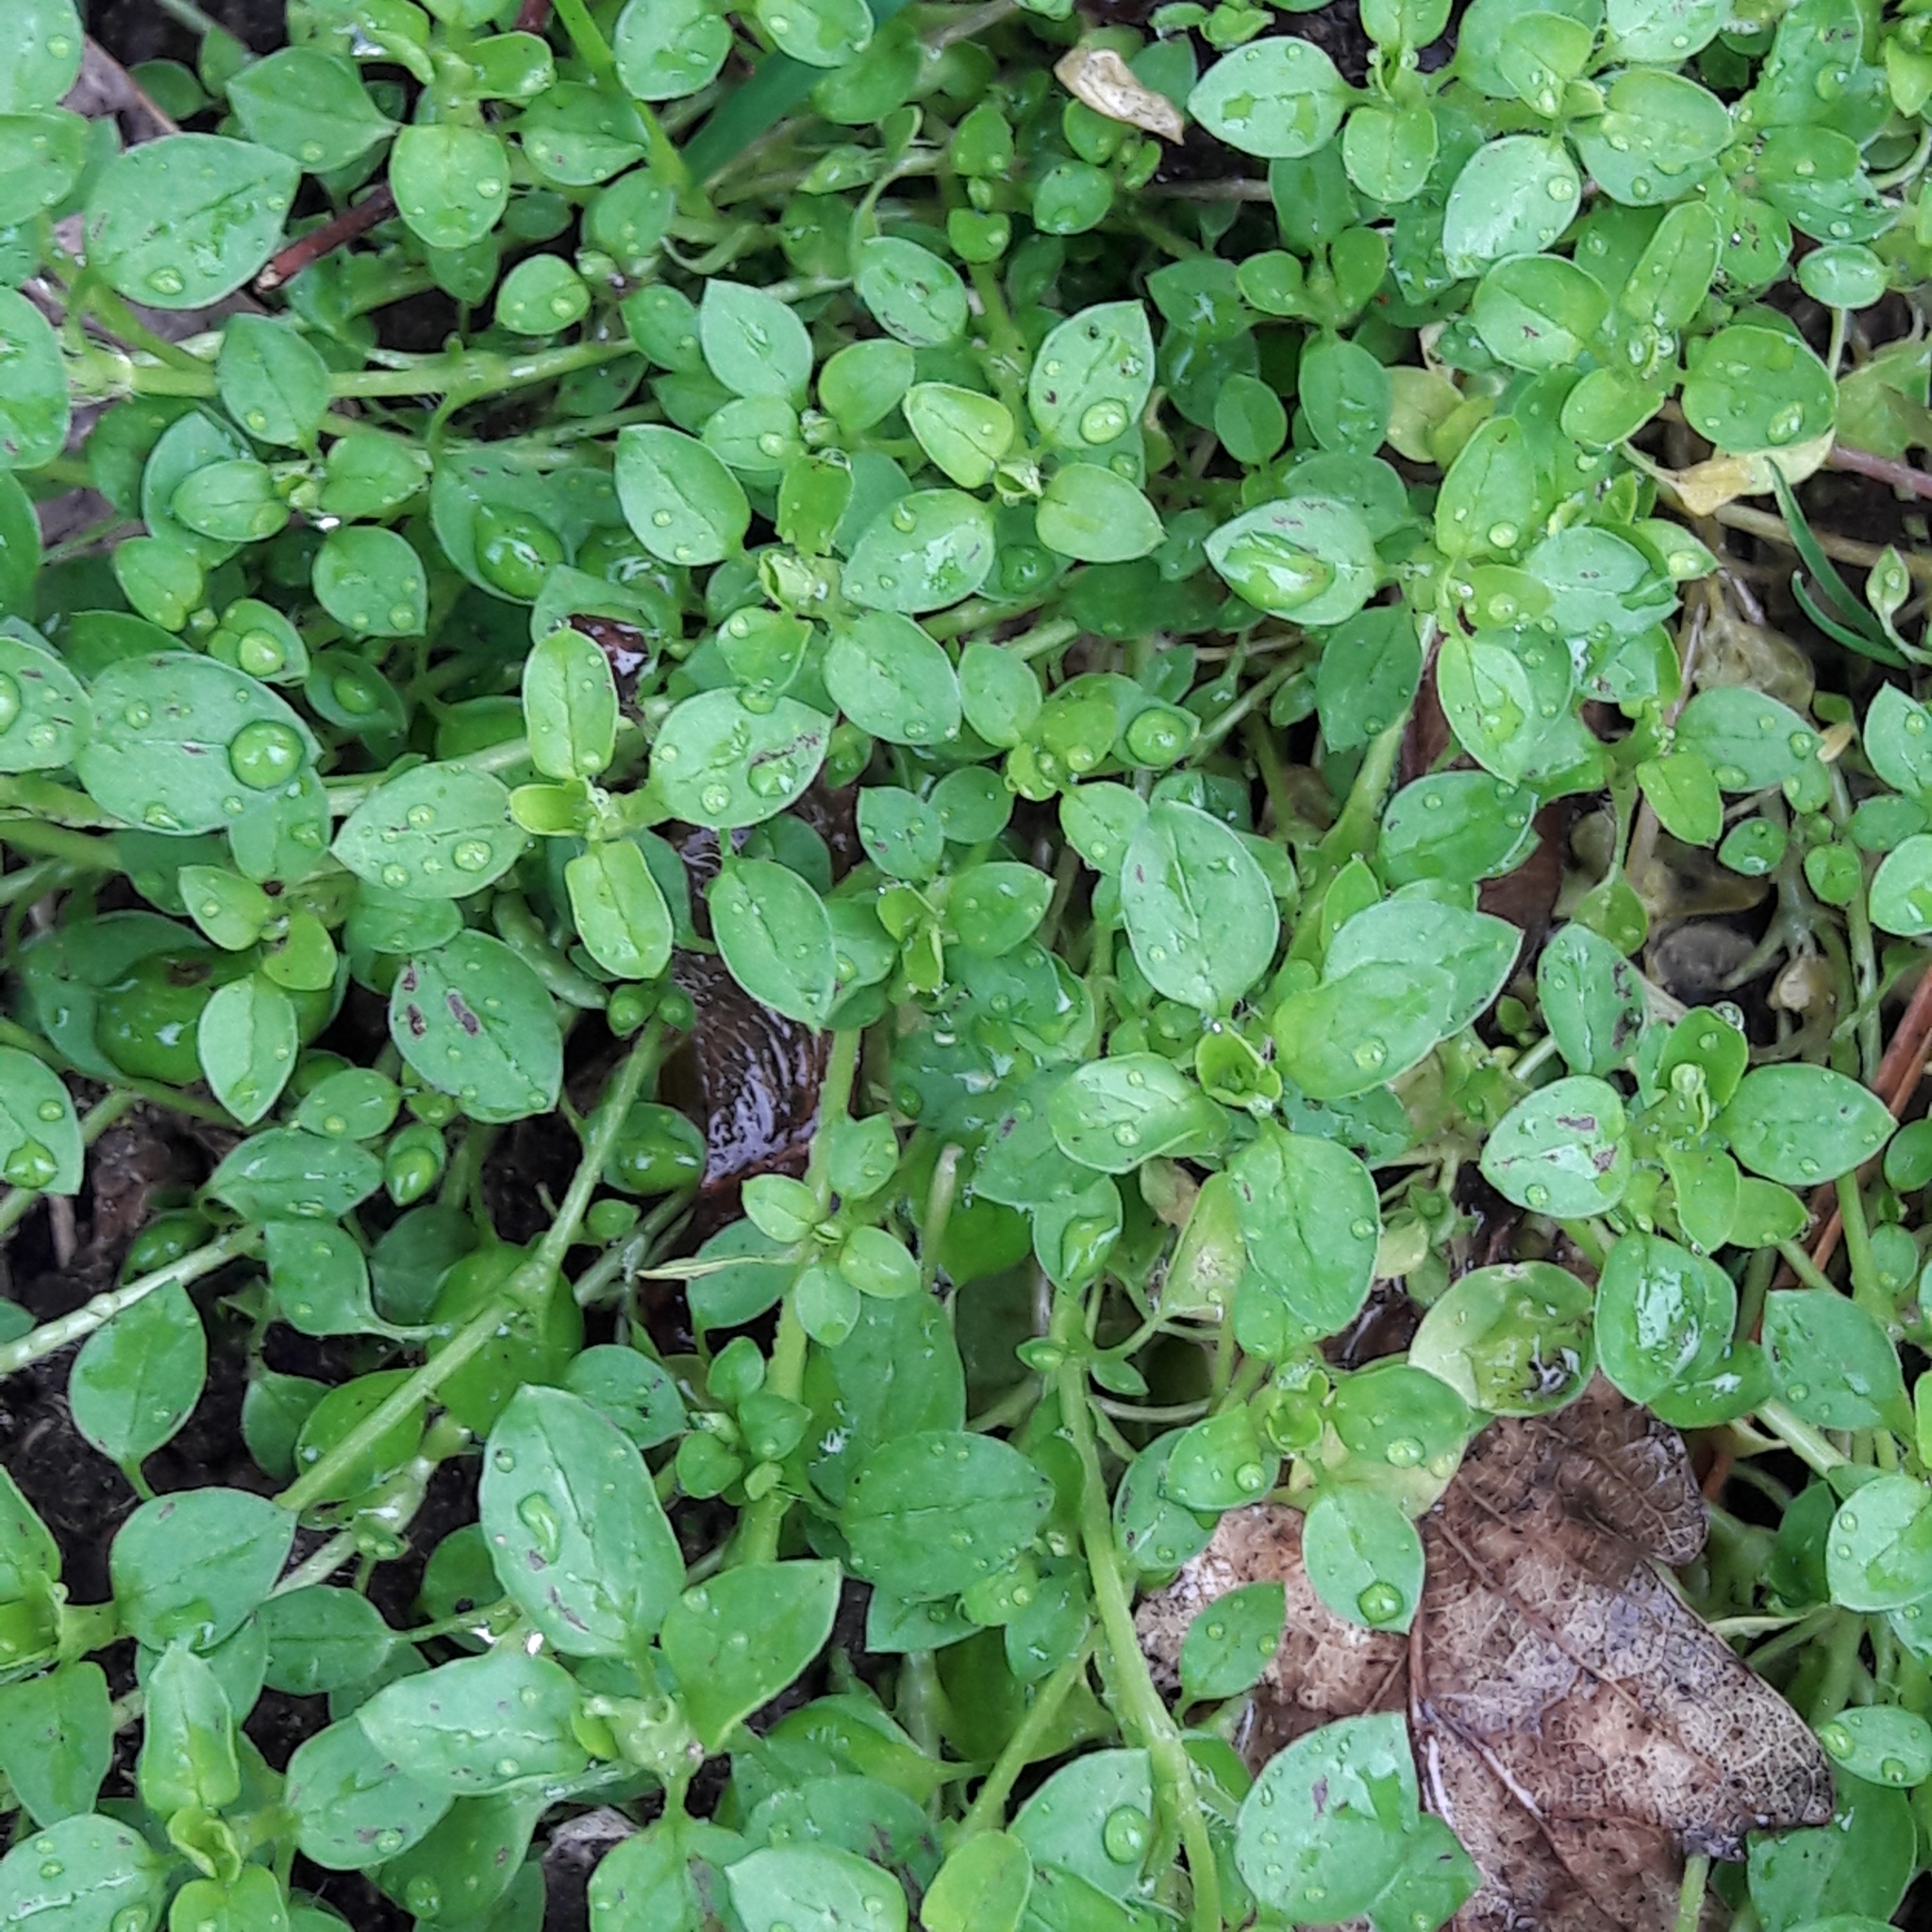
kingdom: Plantae
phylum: Tracheophyta
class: Magnoliopsida
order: Caryophyllales
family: Caryophyllaceae
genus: Stellaria
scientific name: Stellaria media
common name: Common chickweed
